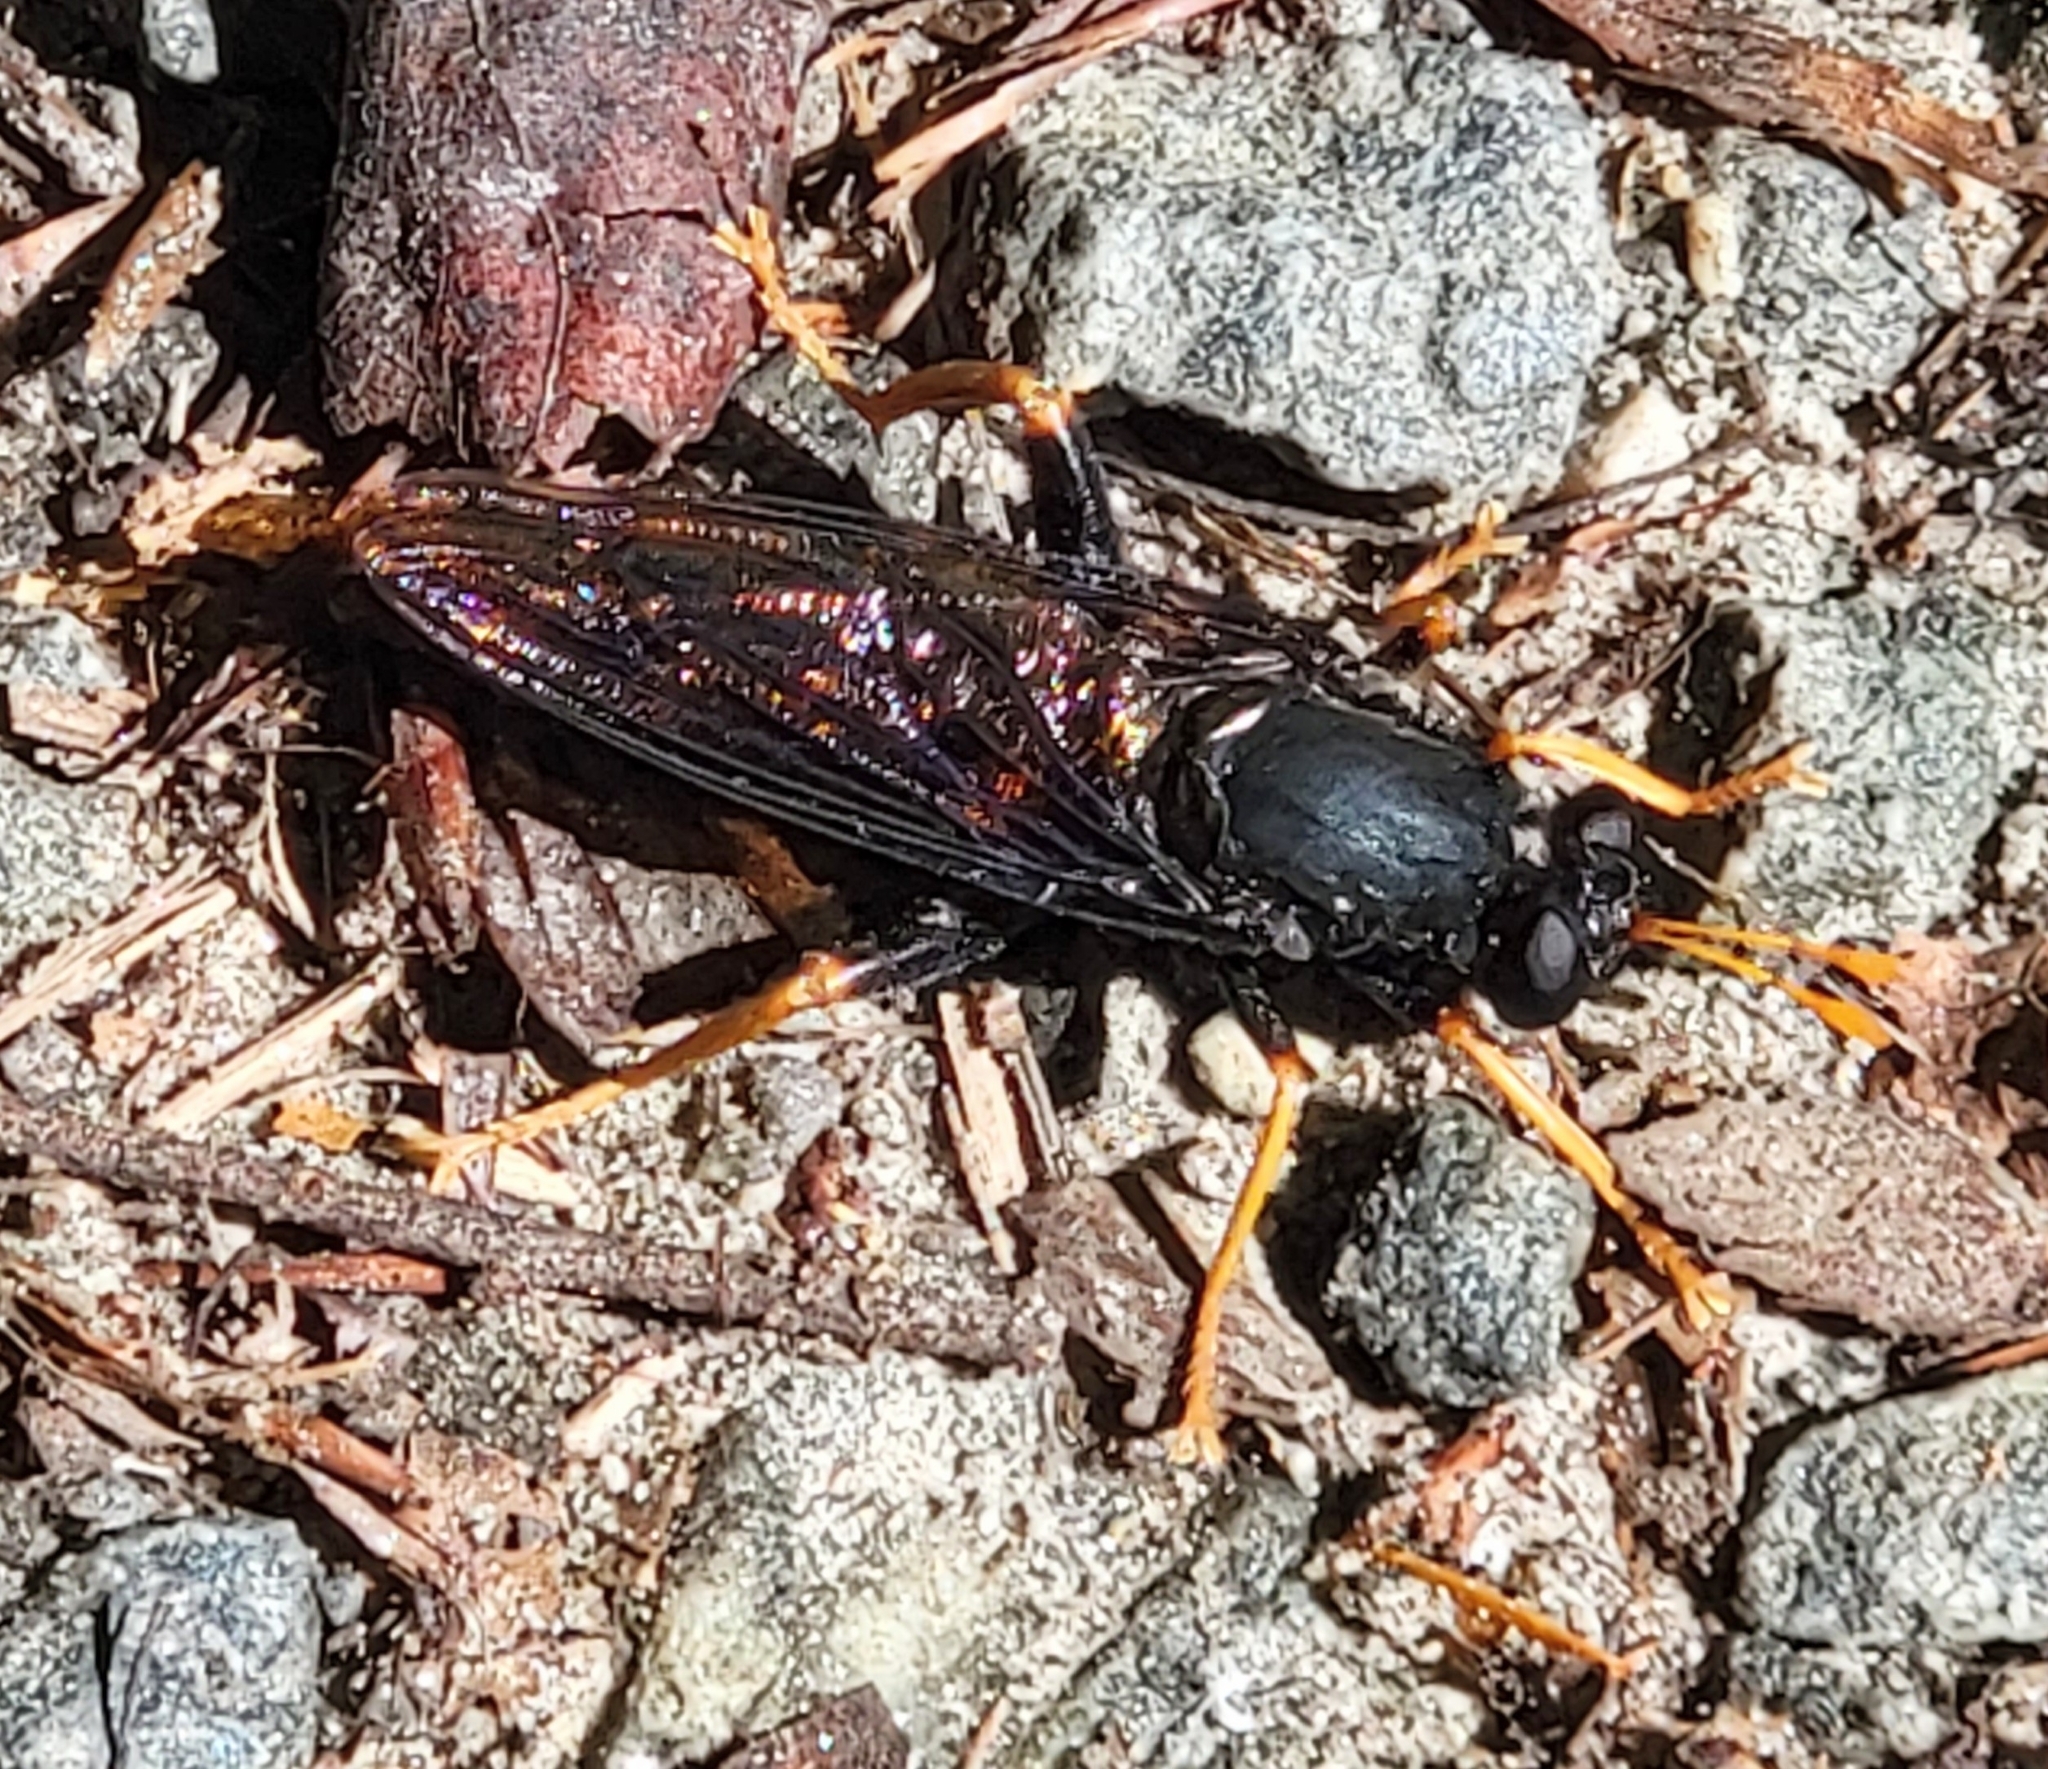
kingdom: Animalia
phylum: Arthropoda
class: Insecta
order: Diptera
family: Mydidae
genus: Mydas
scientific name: Mydas tibialis
